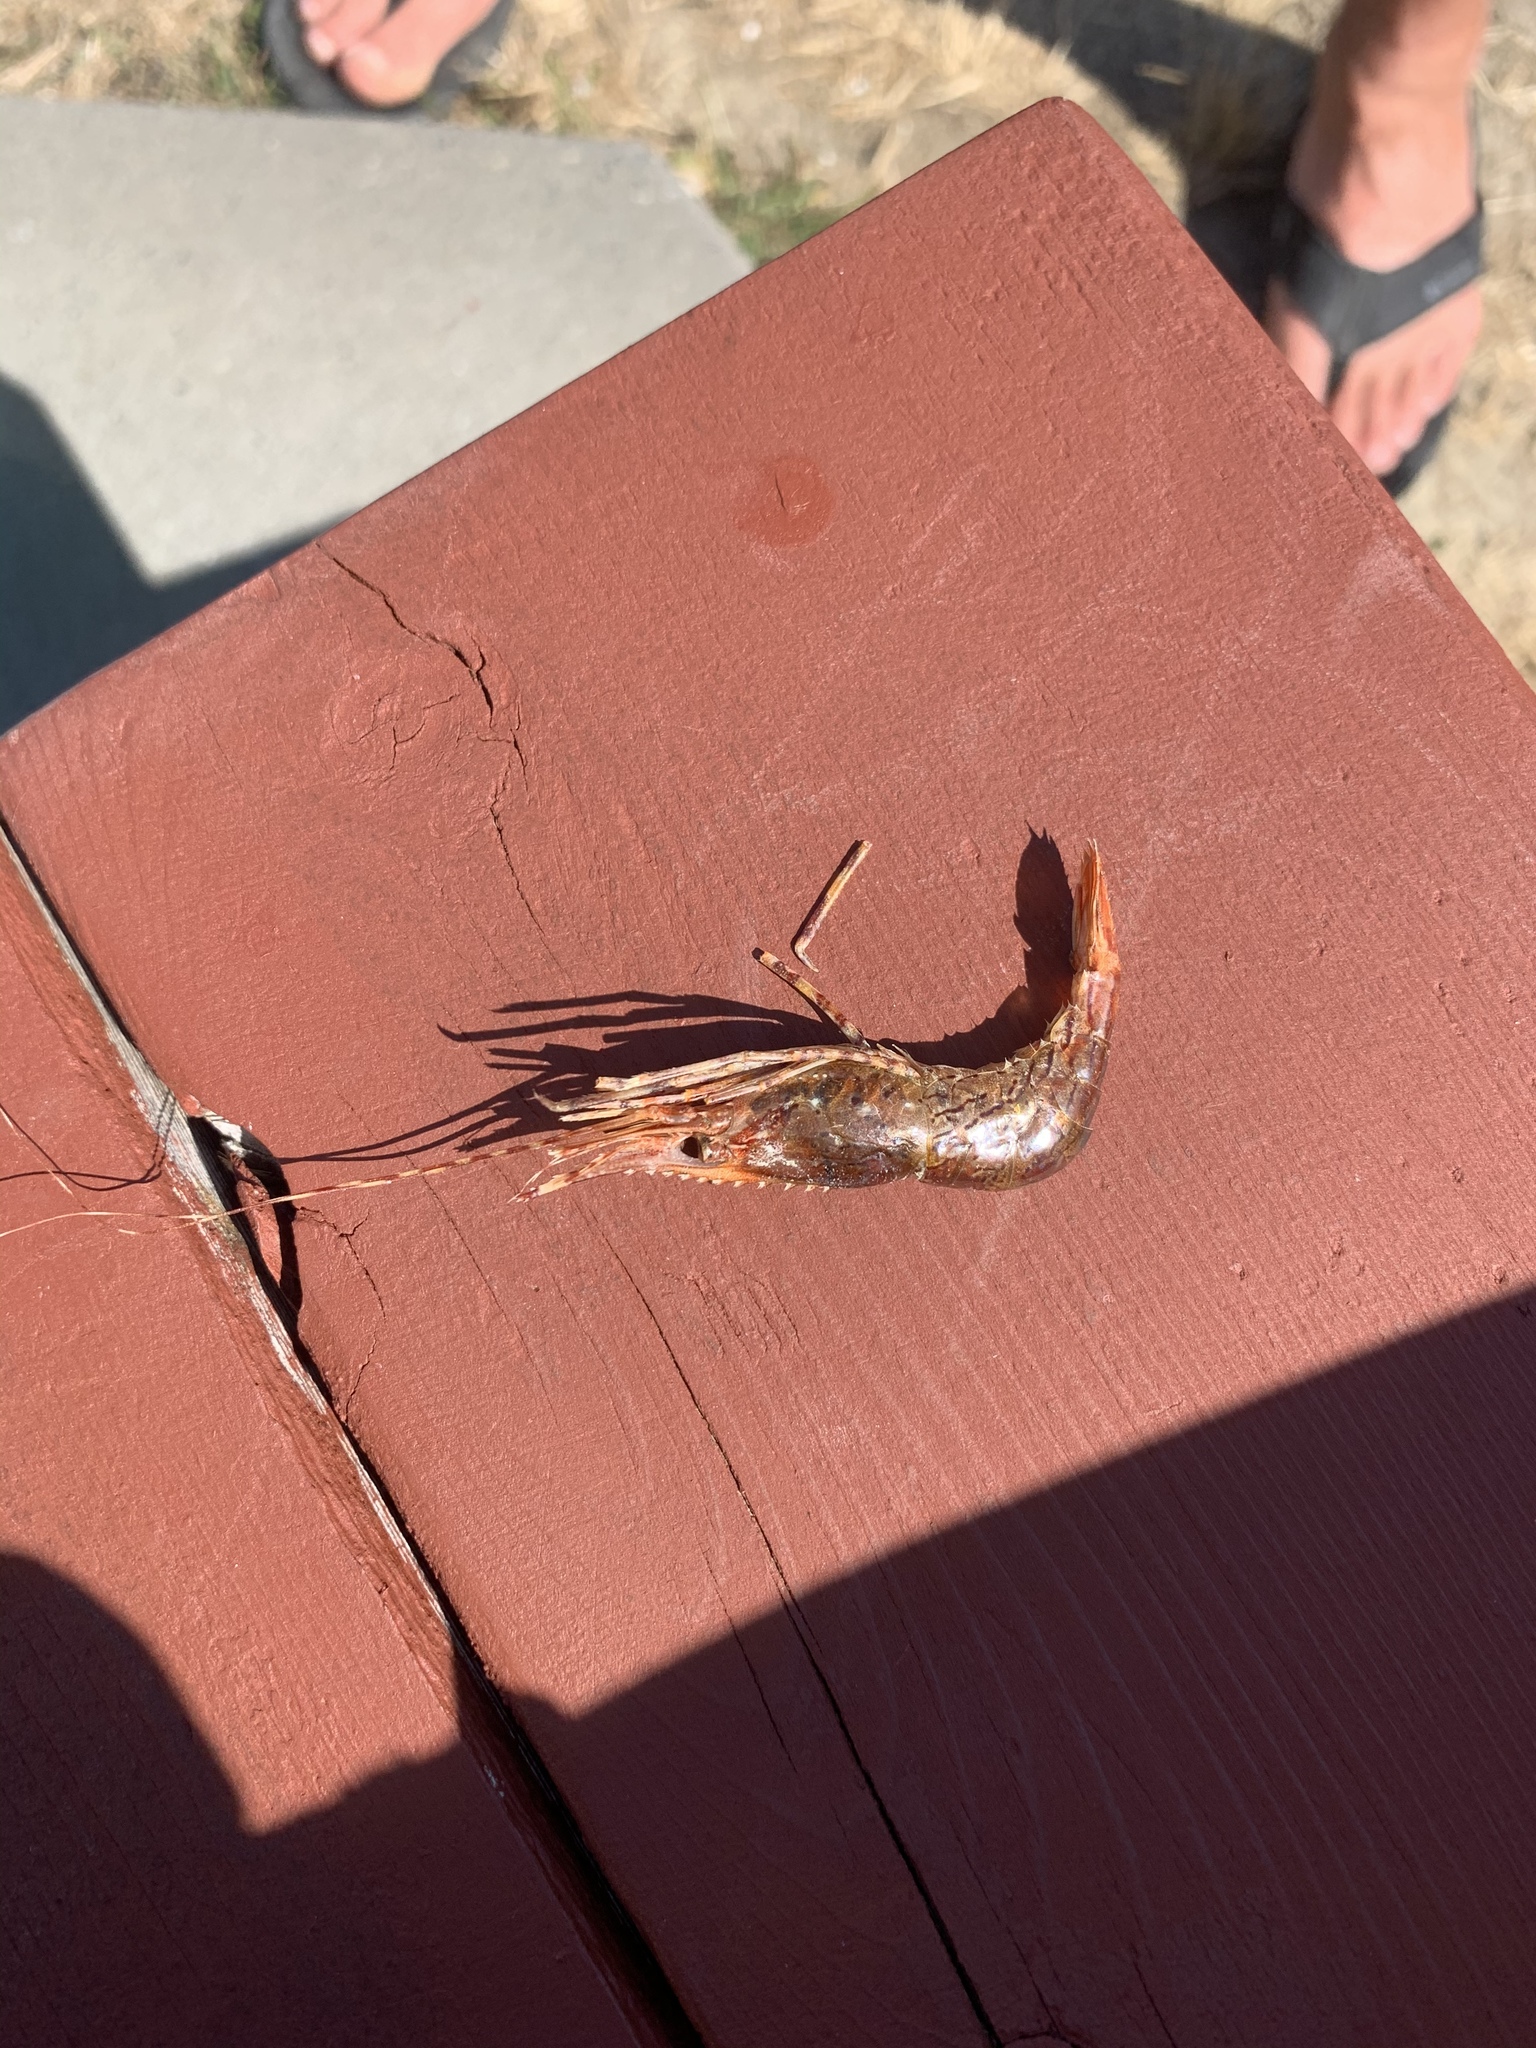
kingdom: Animalia
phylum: Arthropoda
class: Malacostraca
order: Decapoda
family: Pandalidae
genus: Pandalus
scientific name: Pandalus danae
